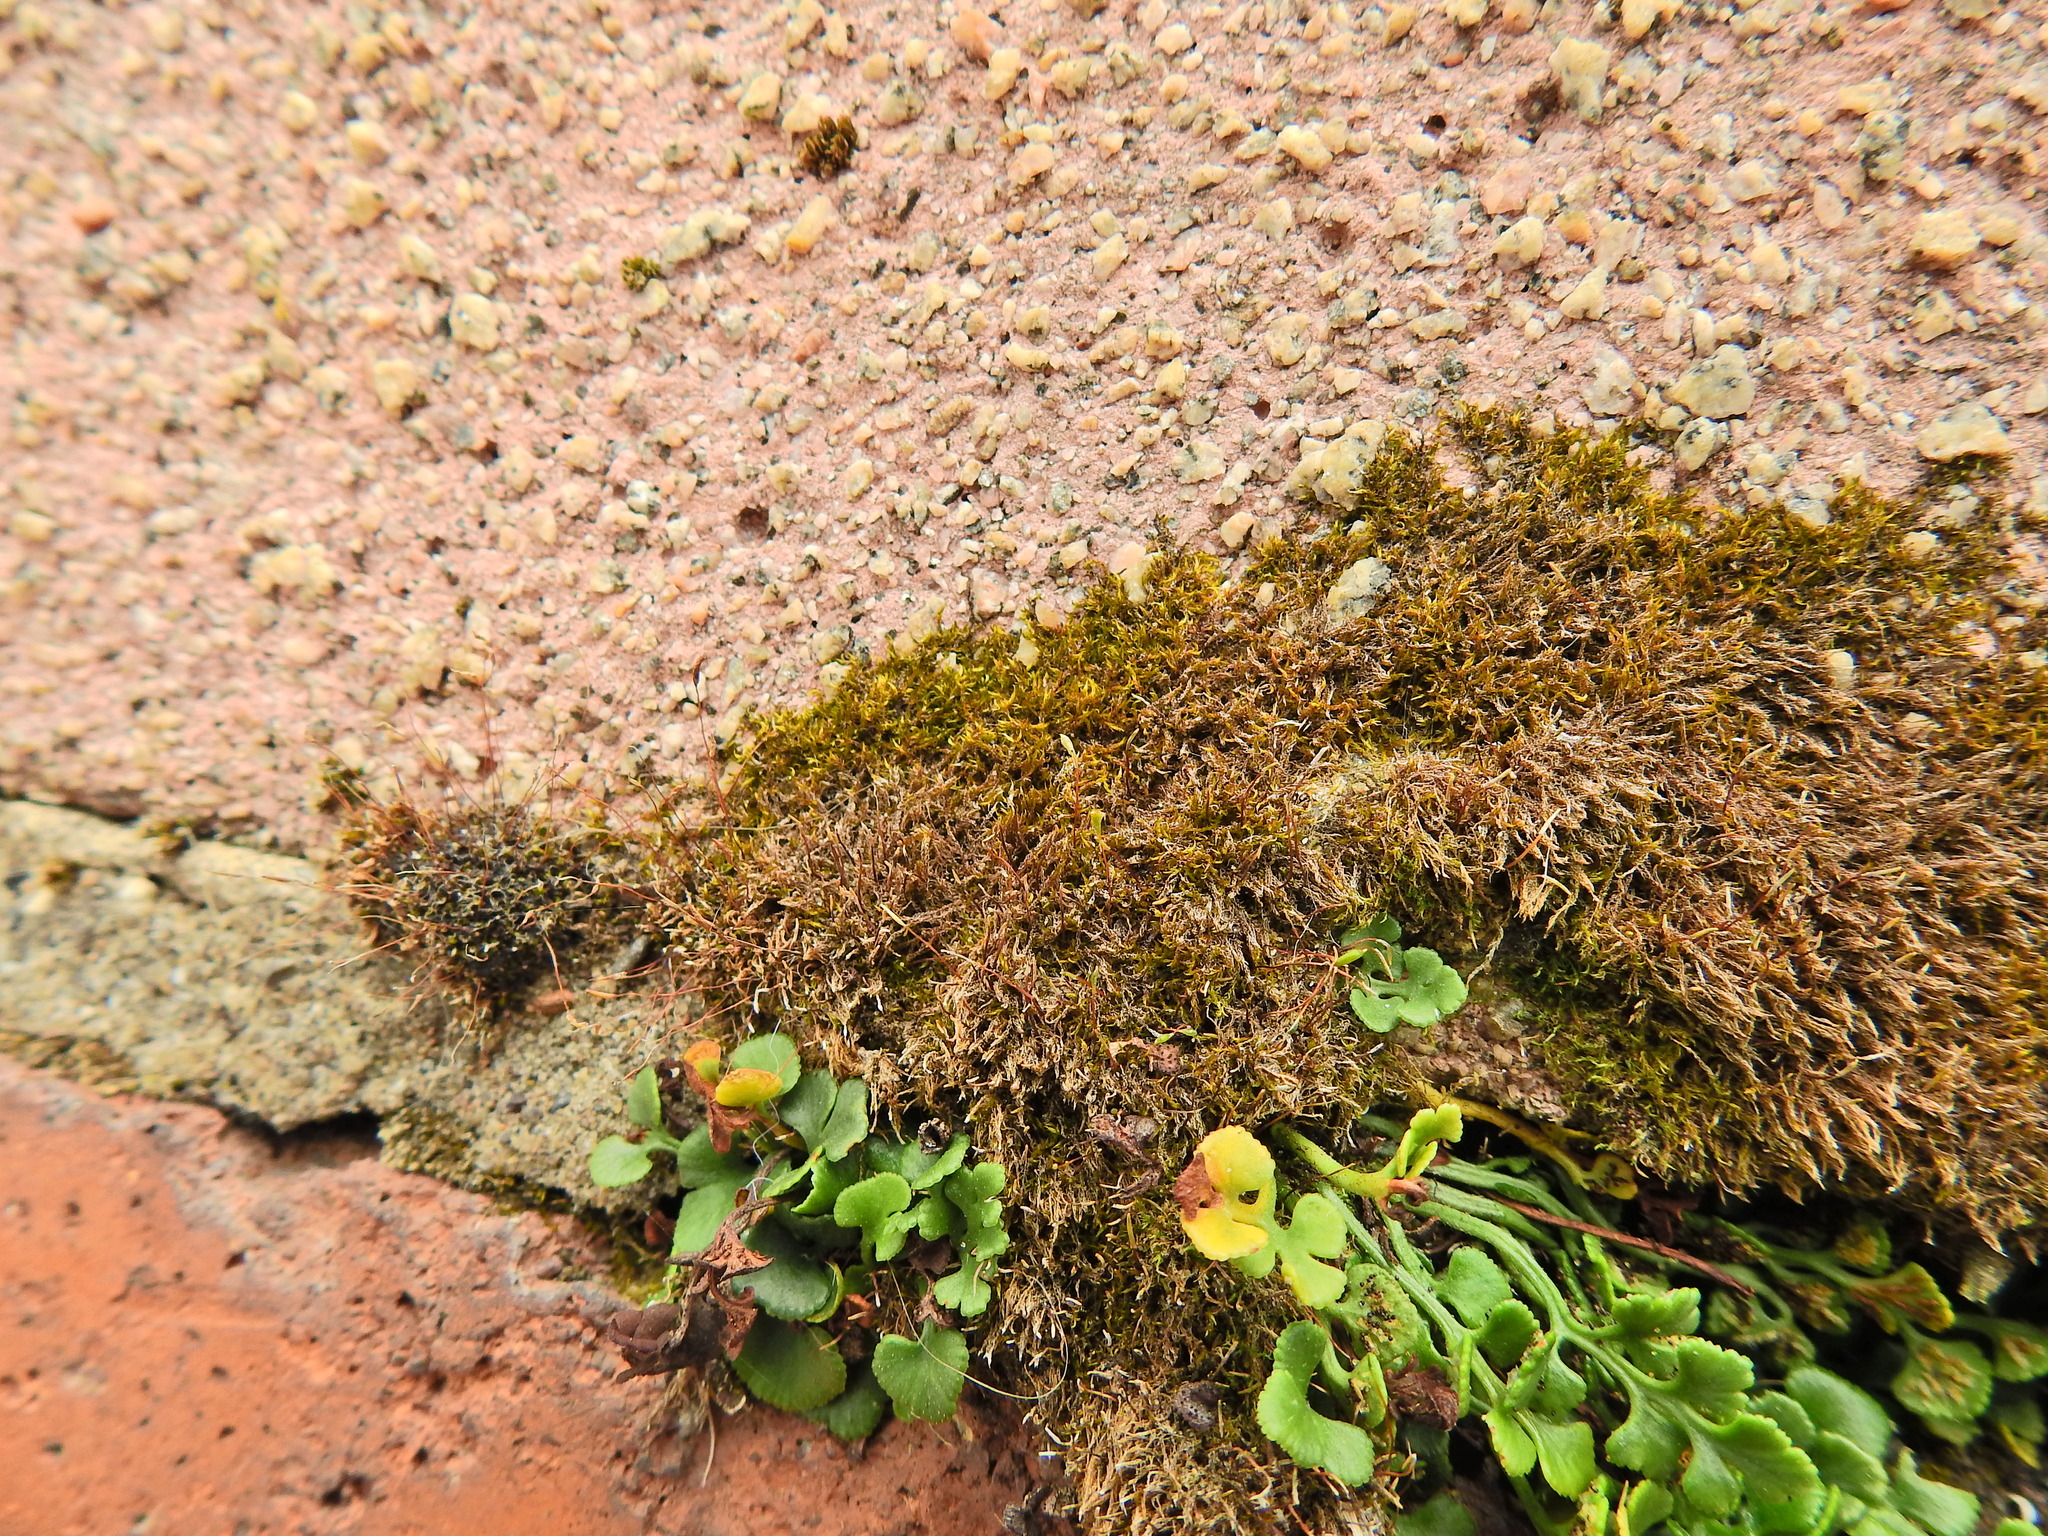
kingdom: Plantae
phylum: Bryophyta
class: Bryopsida
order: Pottiales
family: Pottiaceae
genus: Tortula
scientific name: Tortula muralis
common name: Wall screw-moss
